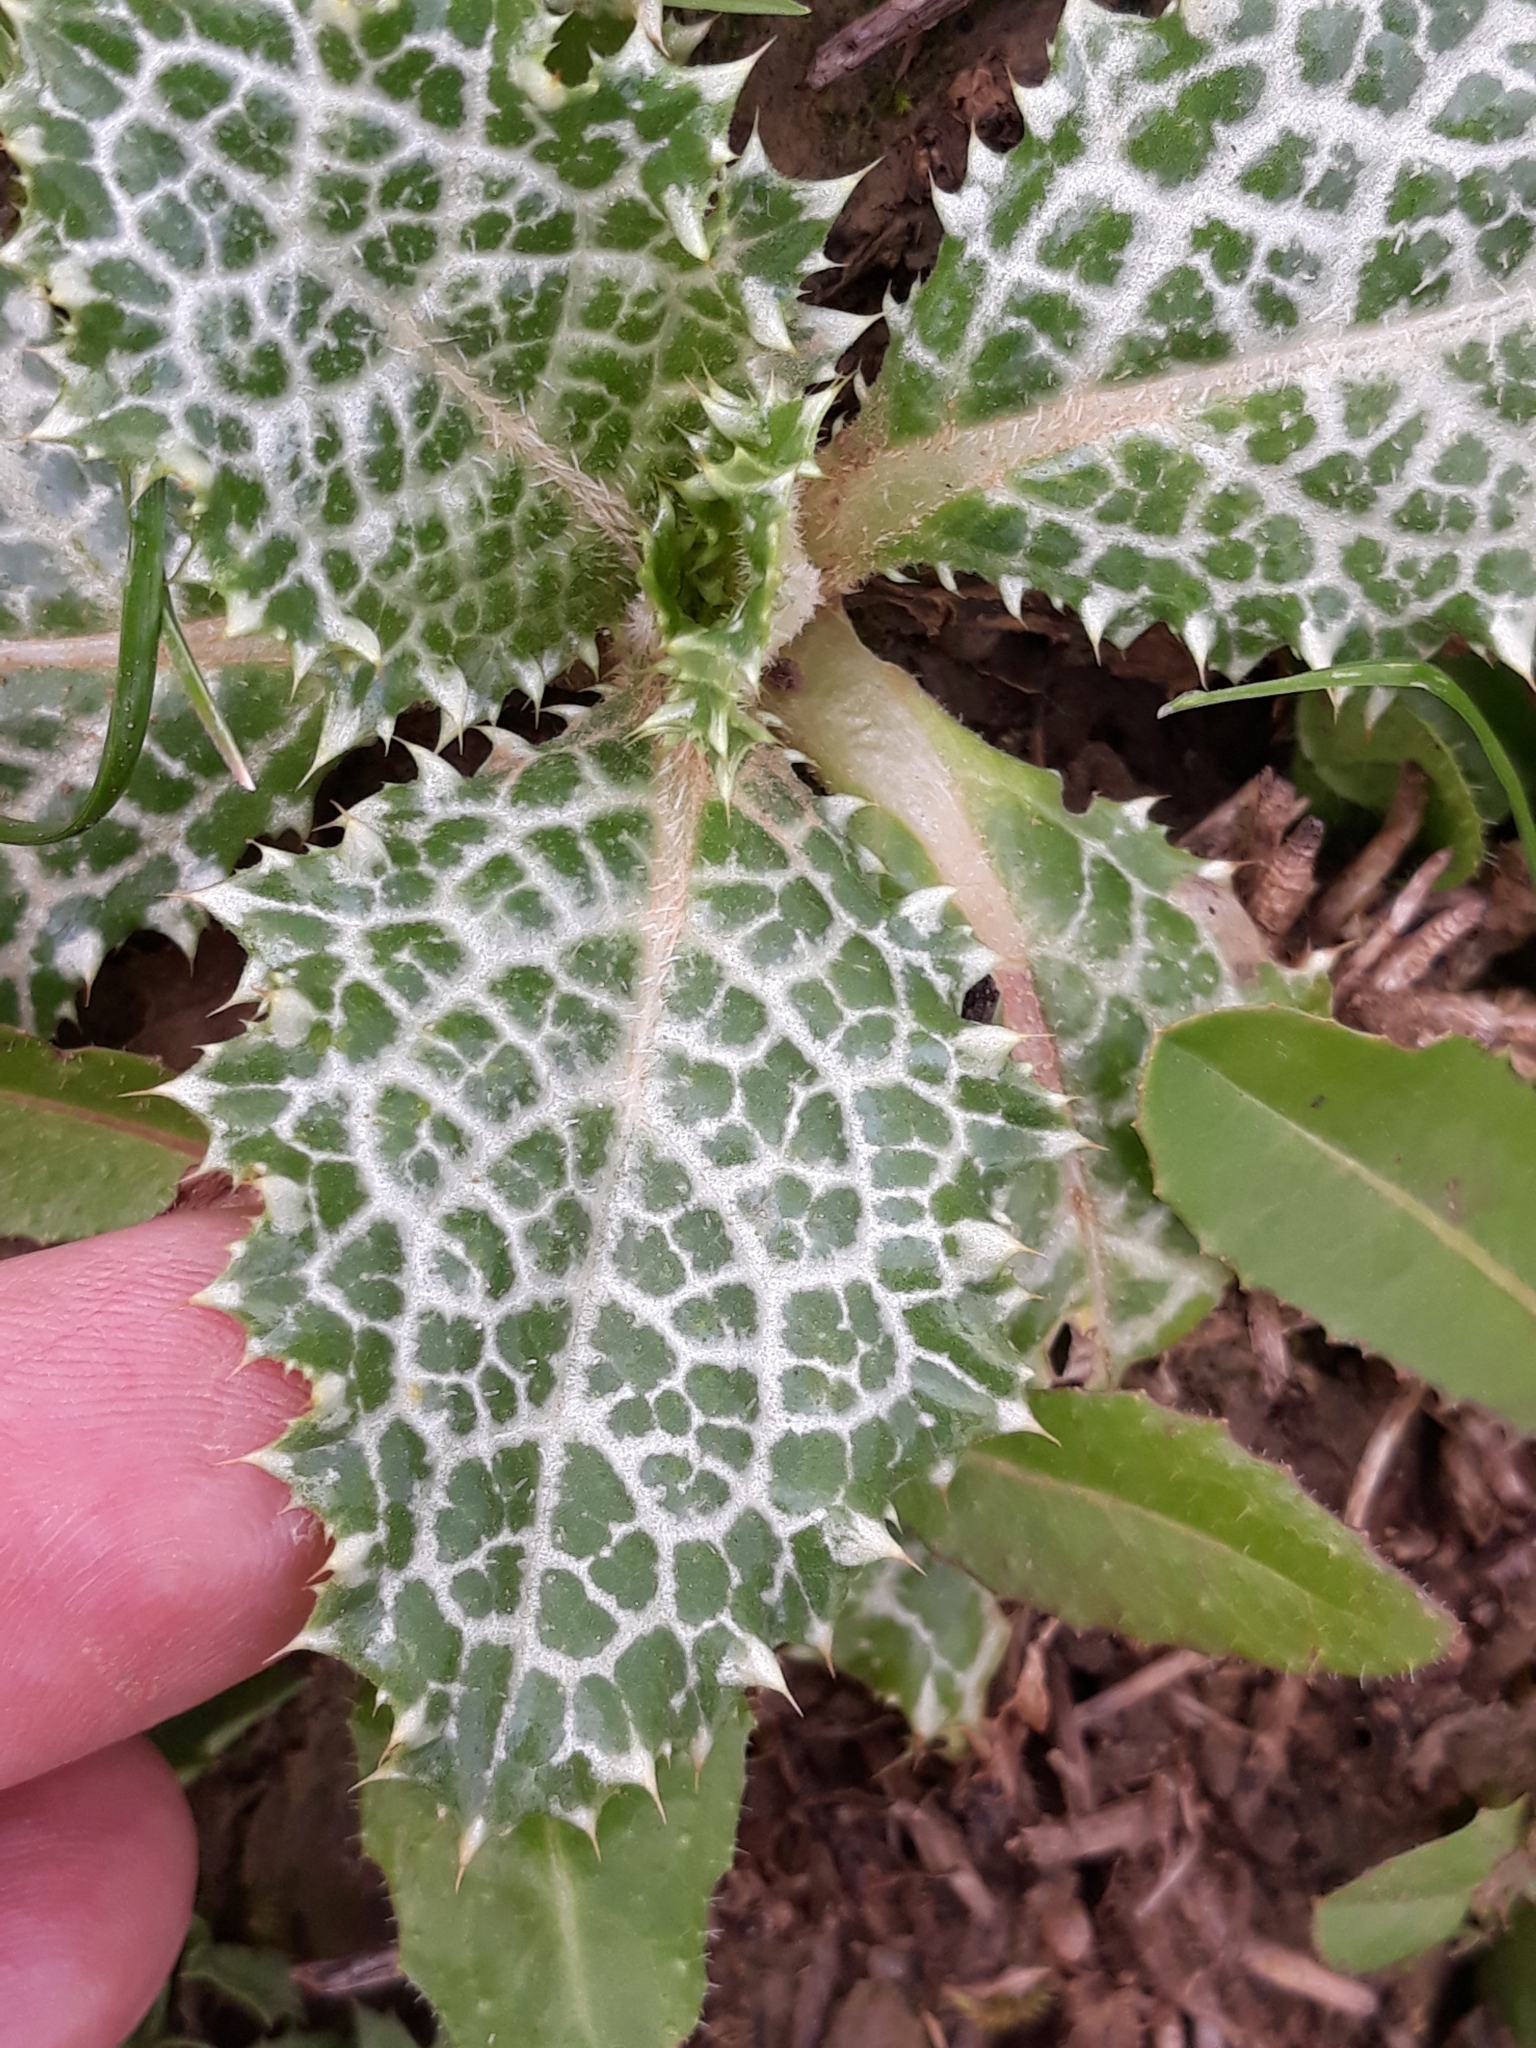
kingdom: Plantae
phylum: Tracheophyta
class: Magnoliopsida
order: Asterales
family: Asteraceae
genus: Notobasis
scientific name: Notobasis syriaca
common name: Syrian thistle
